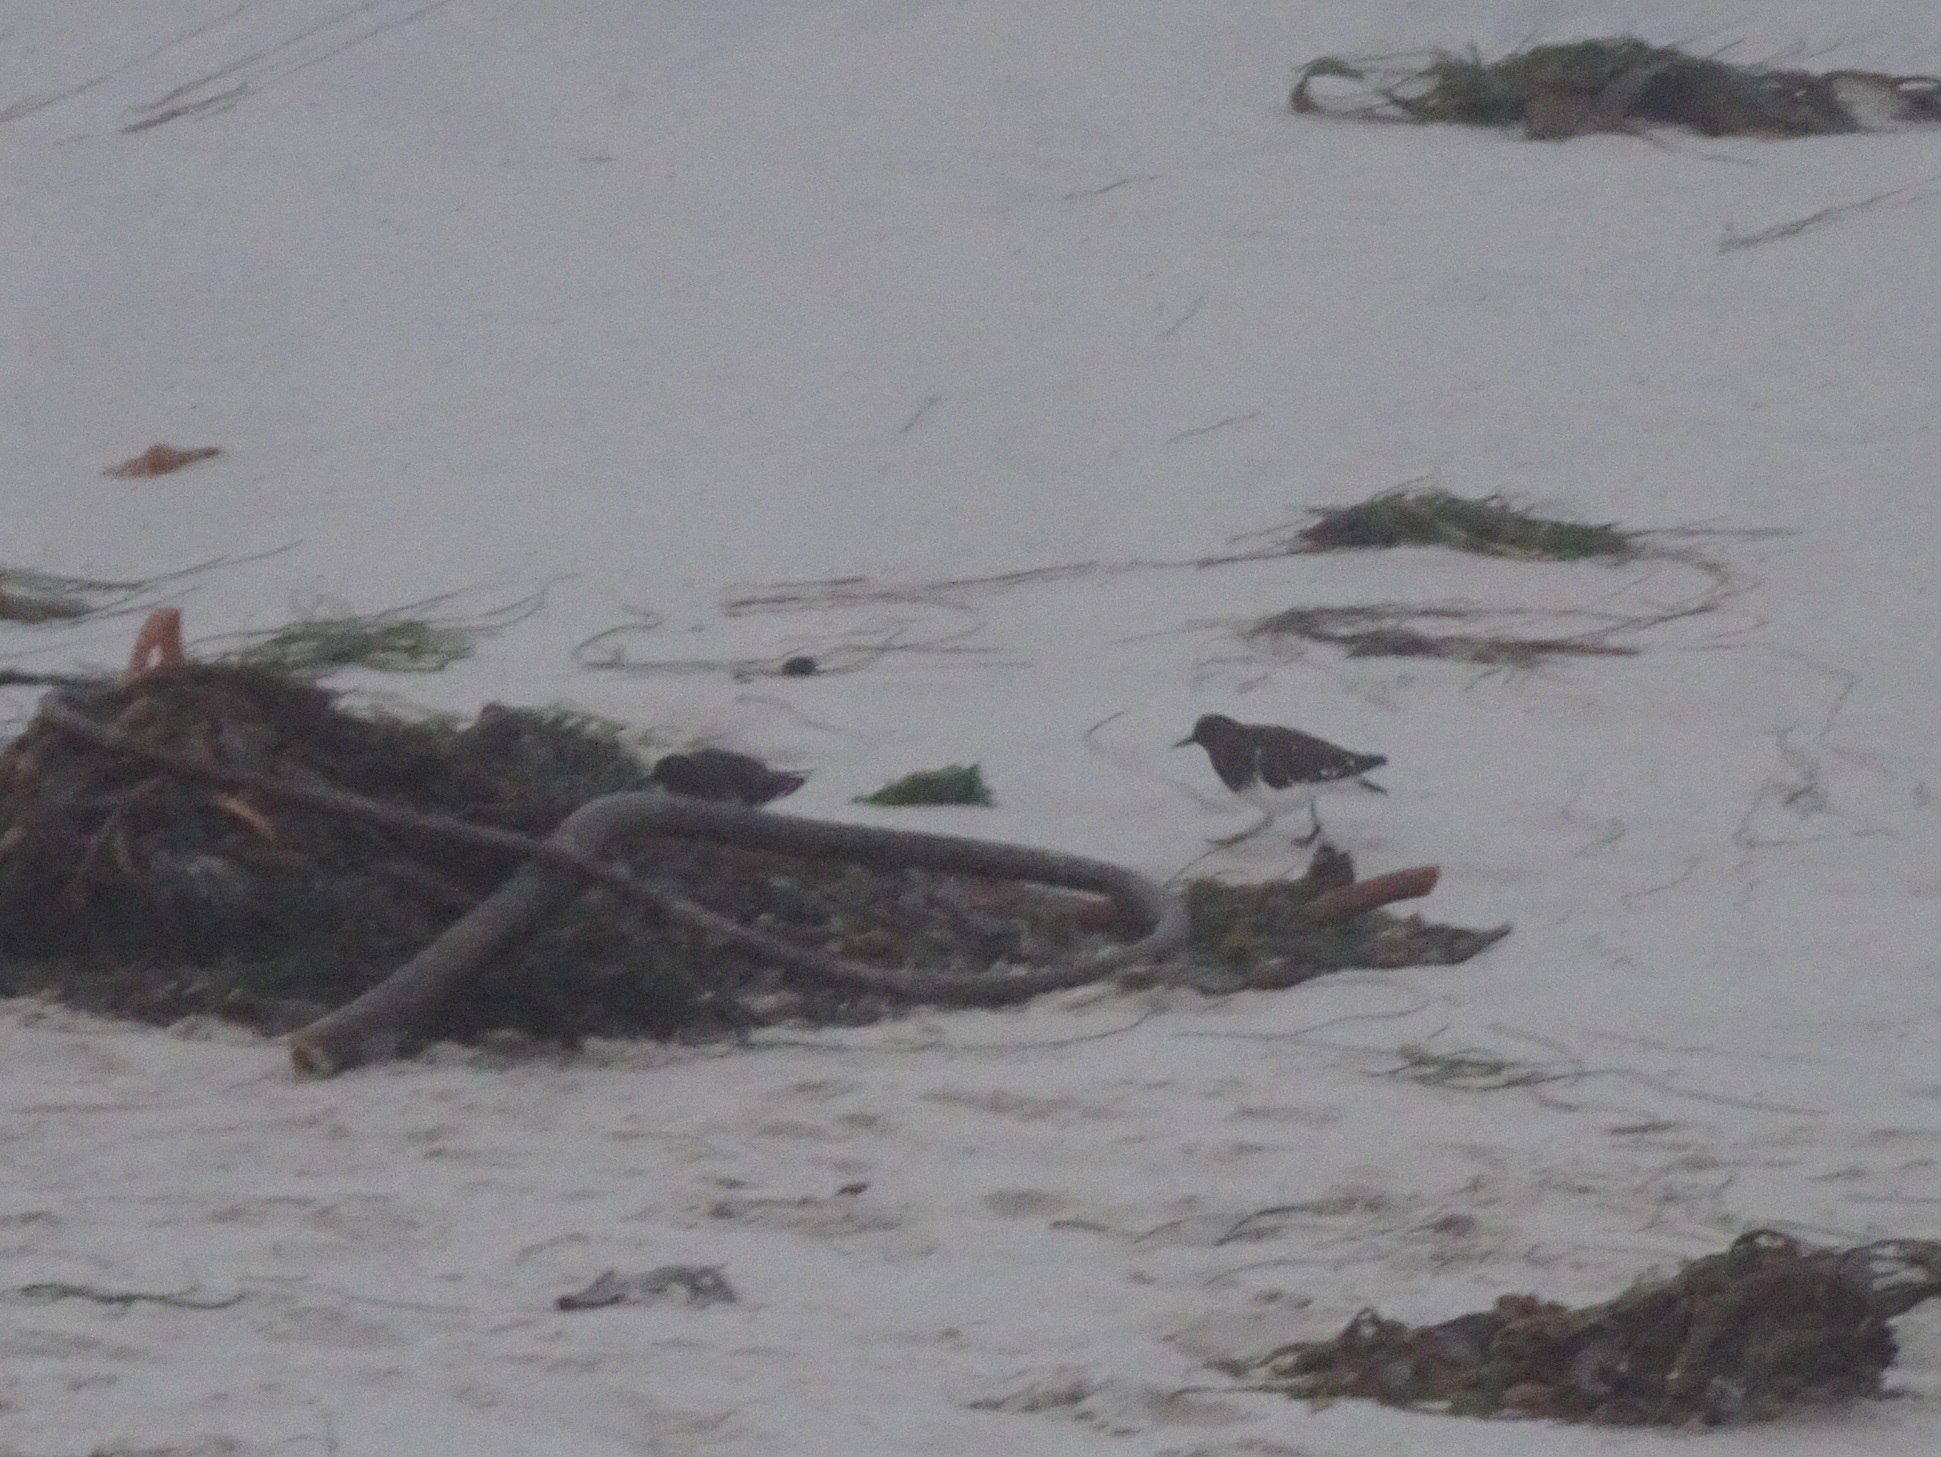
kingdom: Animalia
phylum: Chordata
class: Aves
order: Charadriiformes
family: Scolopacidae
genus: Arenaria
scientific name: Arenaria melanocephala
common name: Black turnstone
